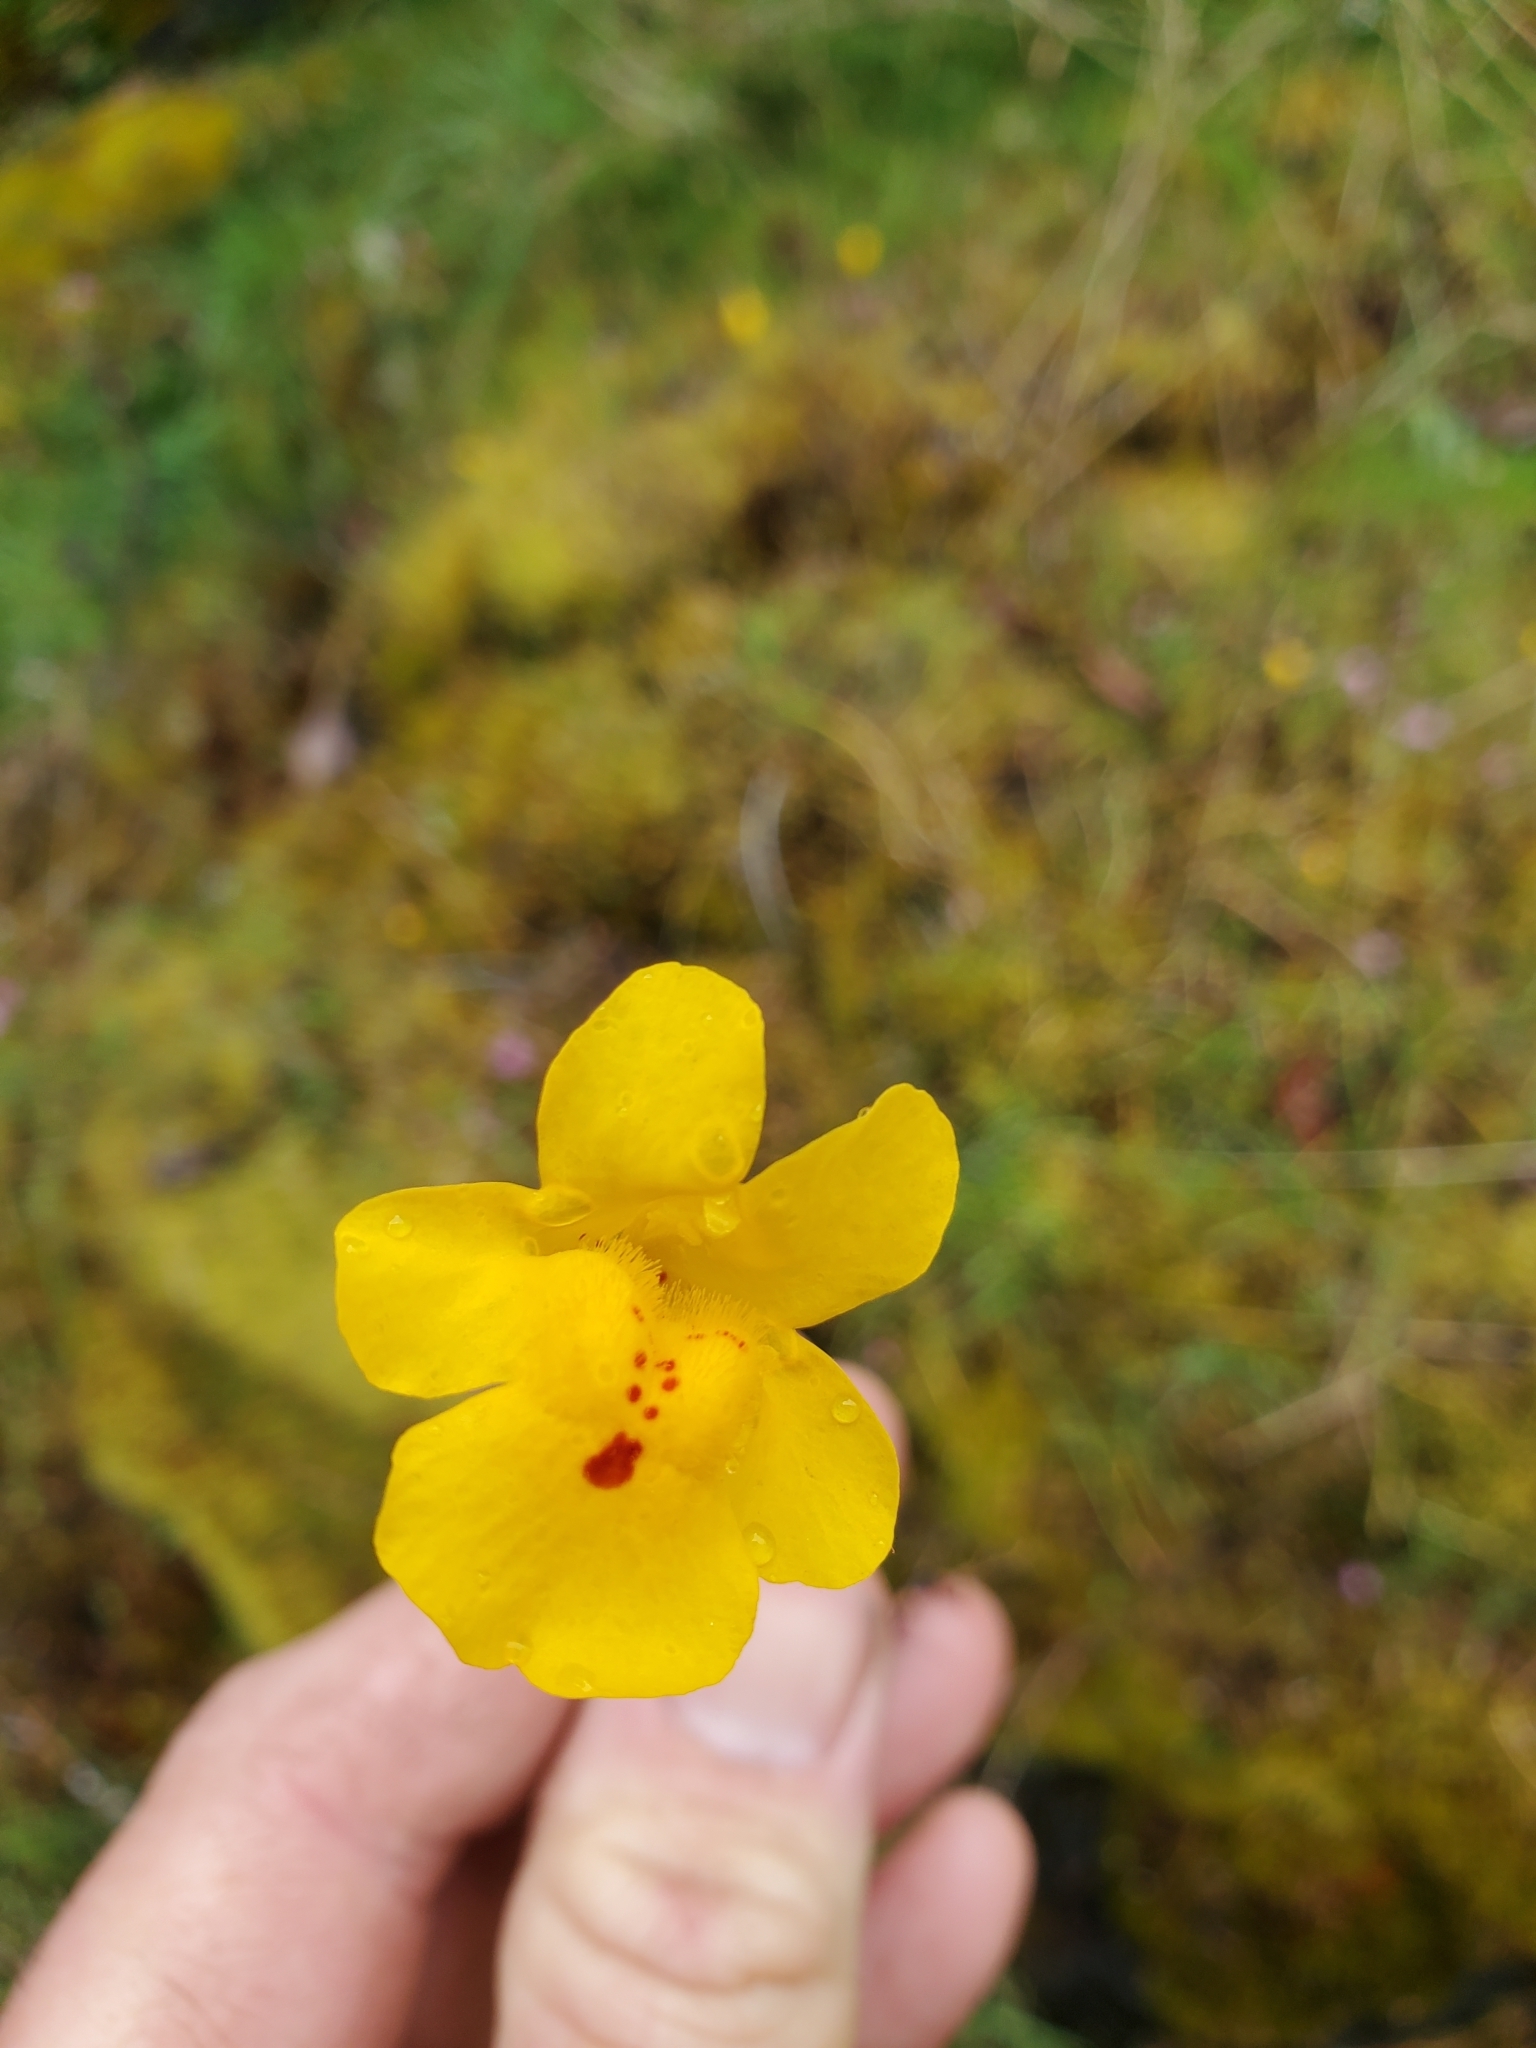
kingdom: Plantae
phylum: Tracheophyta
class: Magnoliopsida
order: Lamiales
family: Phrymaceae
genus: Erythranthe
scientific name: Erythranthe microphylla
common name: Bentham's monkeyflower
